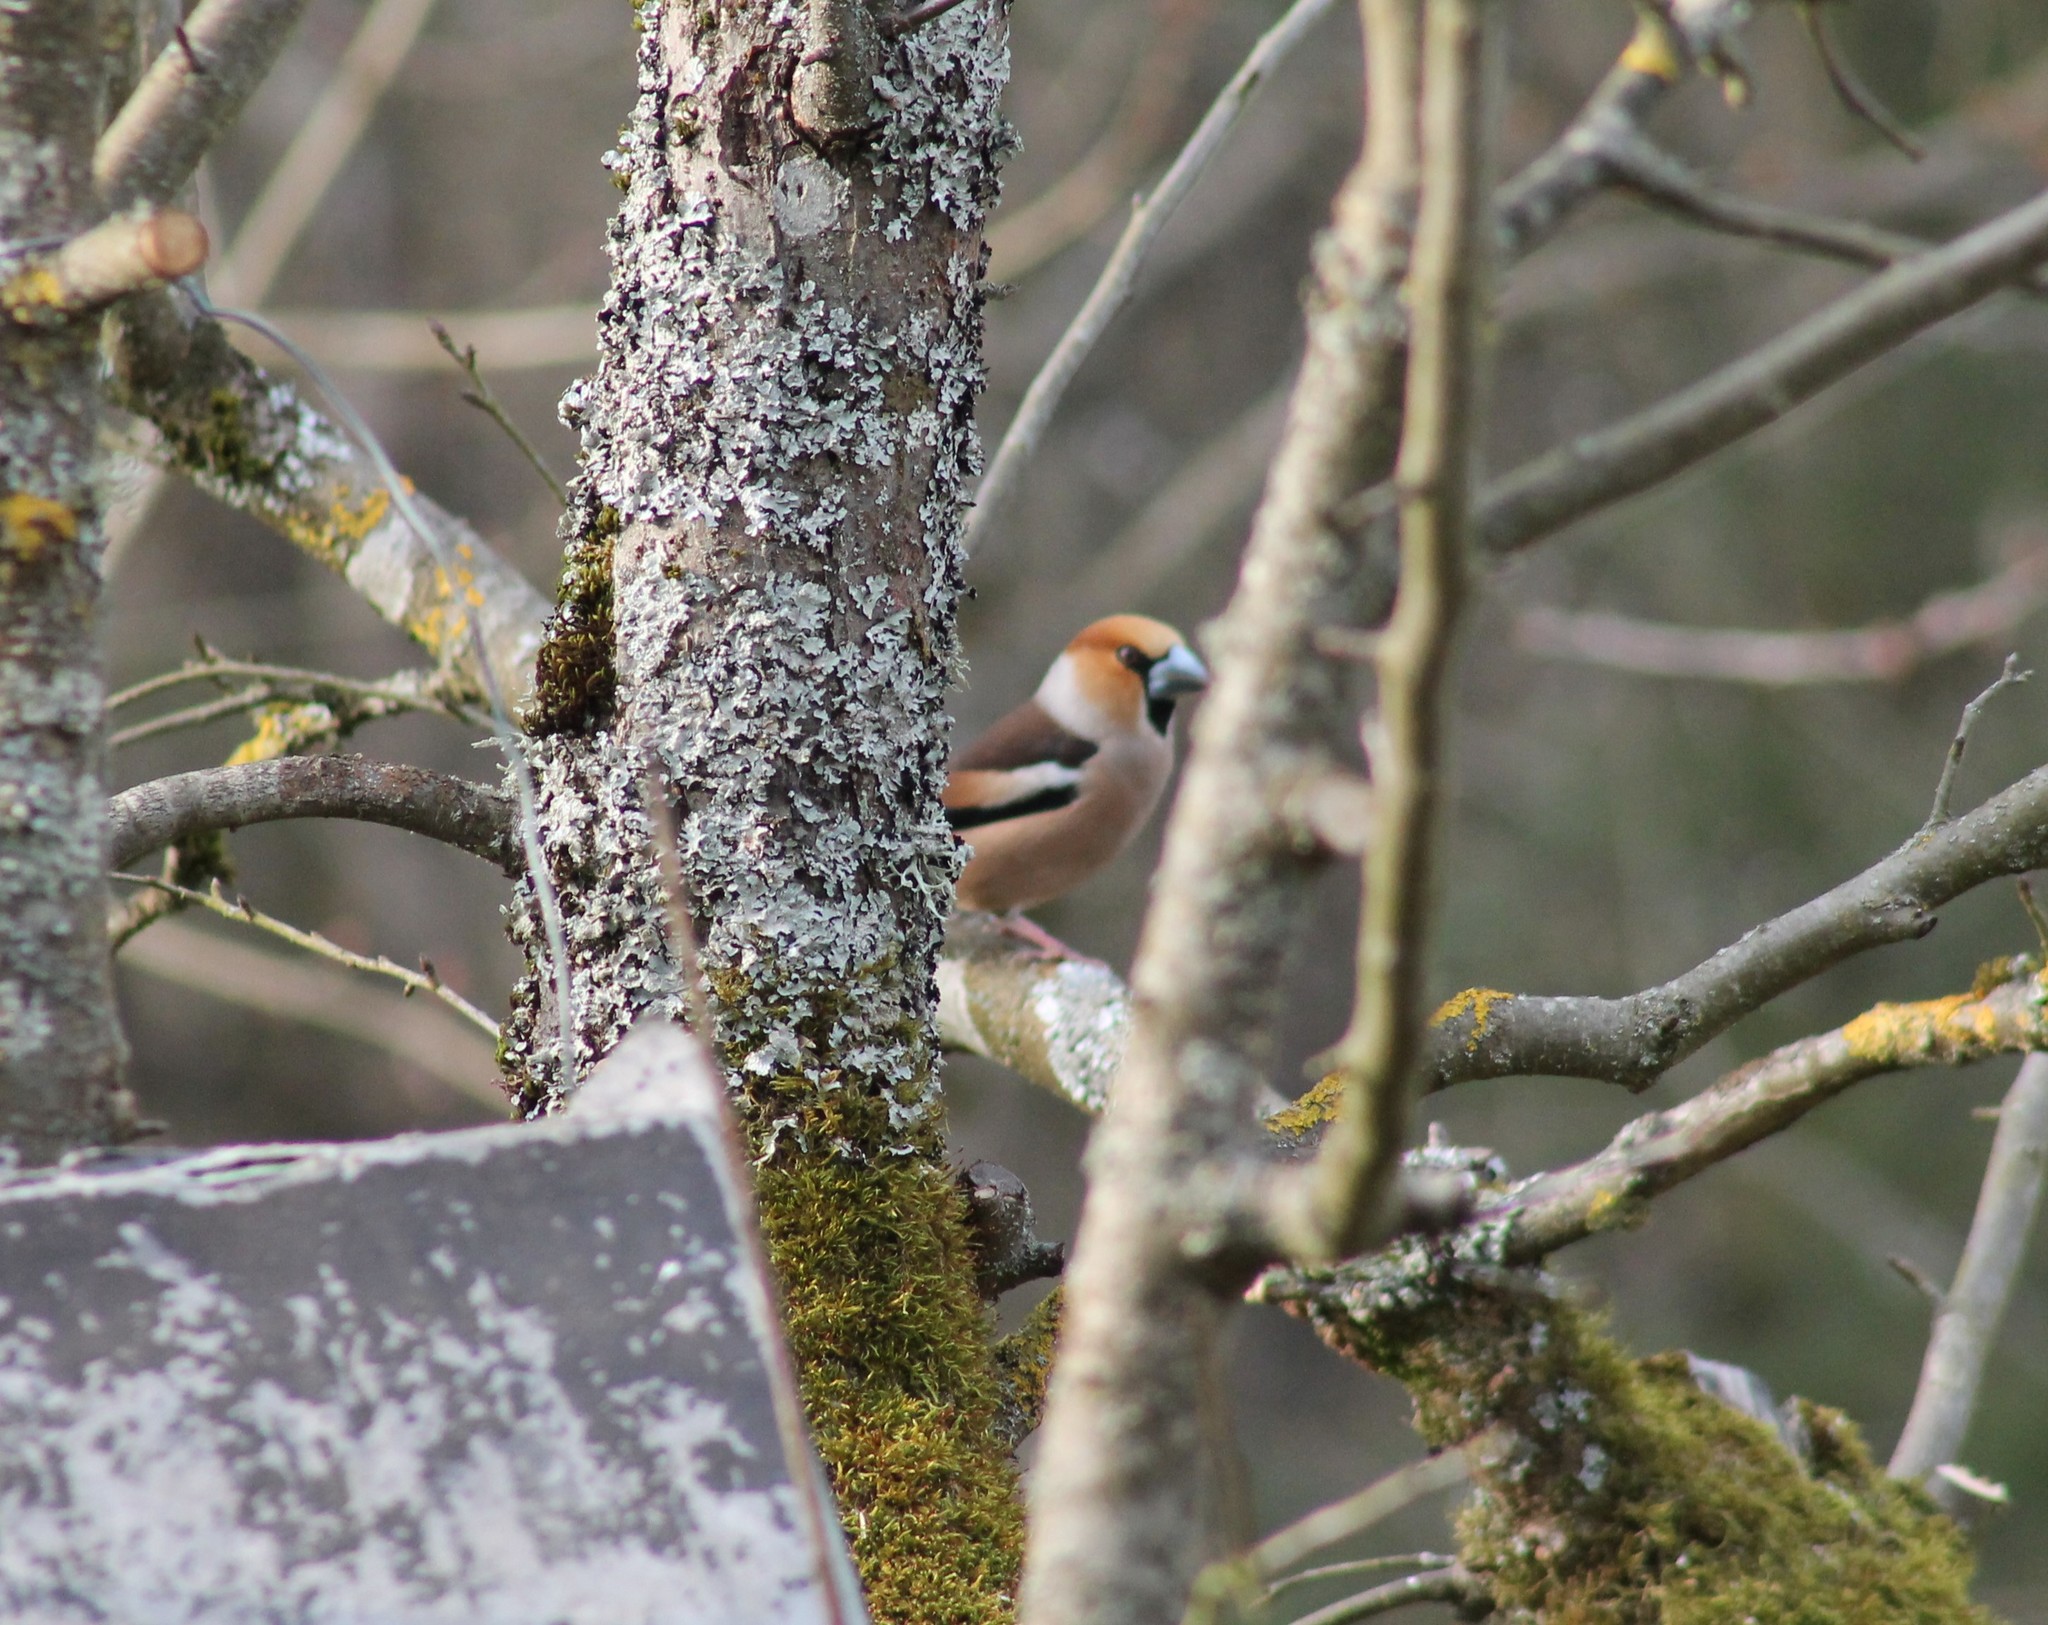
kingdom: Animalia
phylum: Chordata
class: Aves
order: Passeriformes
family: Fringillidae
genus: Coccothraustes
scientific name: Coccothraustes coccothraustes
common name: Hawfinch
